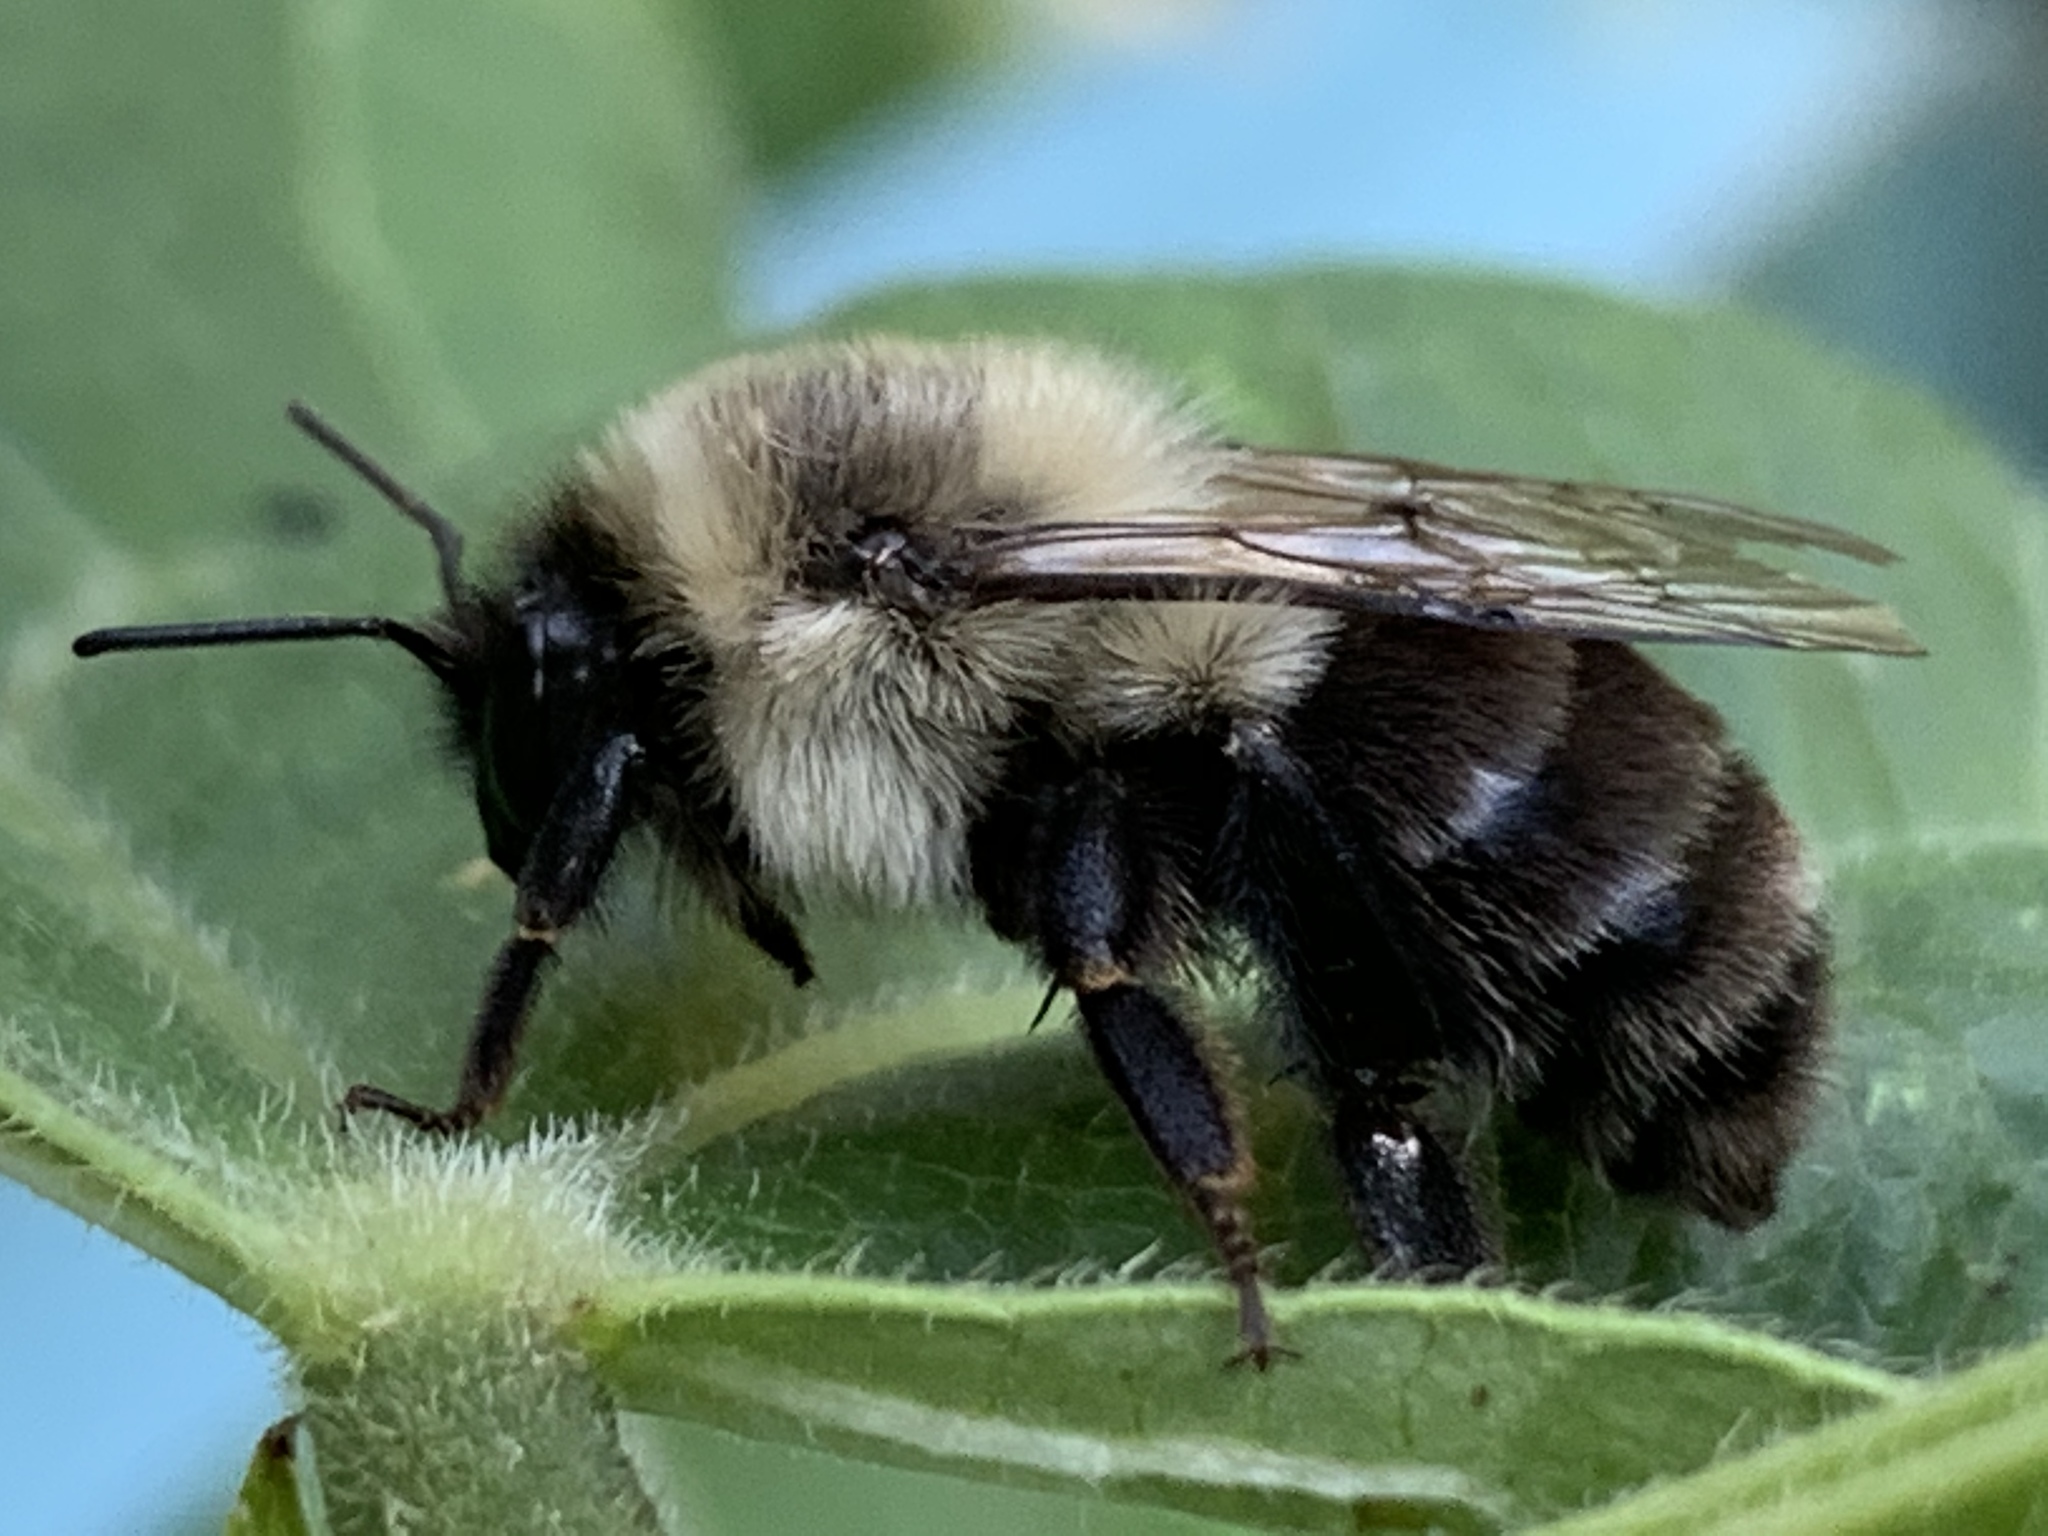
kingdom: Animalia
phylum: Arthropoda
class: Insecta
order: Hymenoptera
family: Apidae
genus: Bombus
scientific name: Bombus impatiens
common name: Common eastern bumble bee
